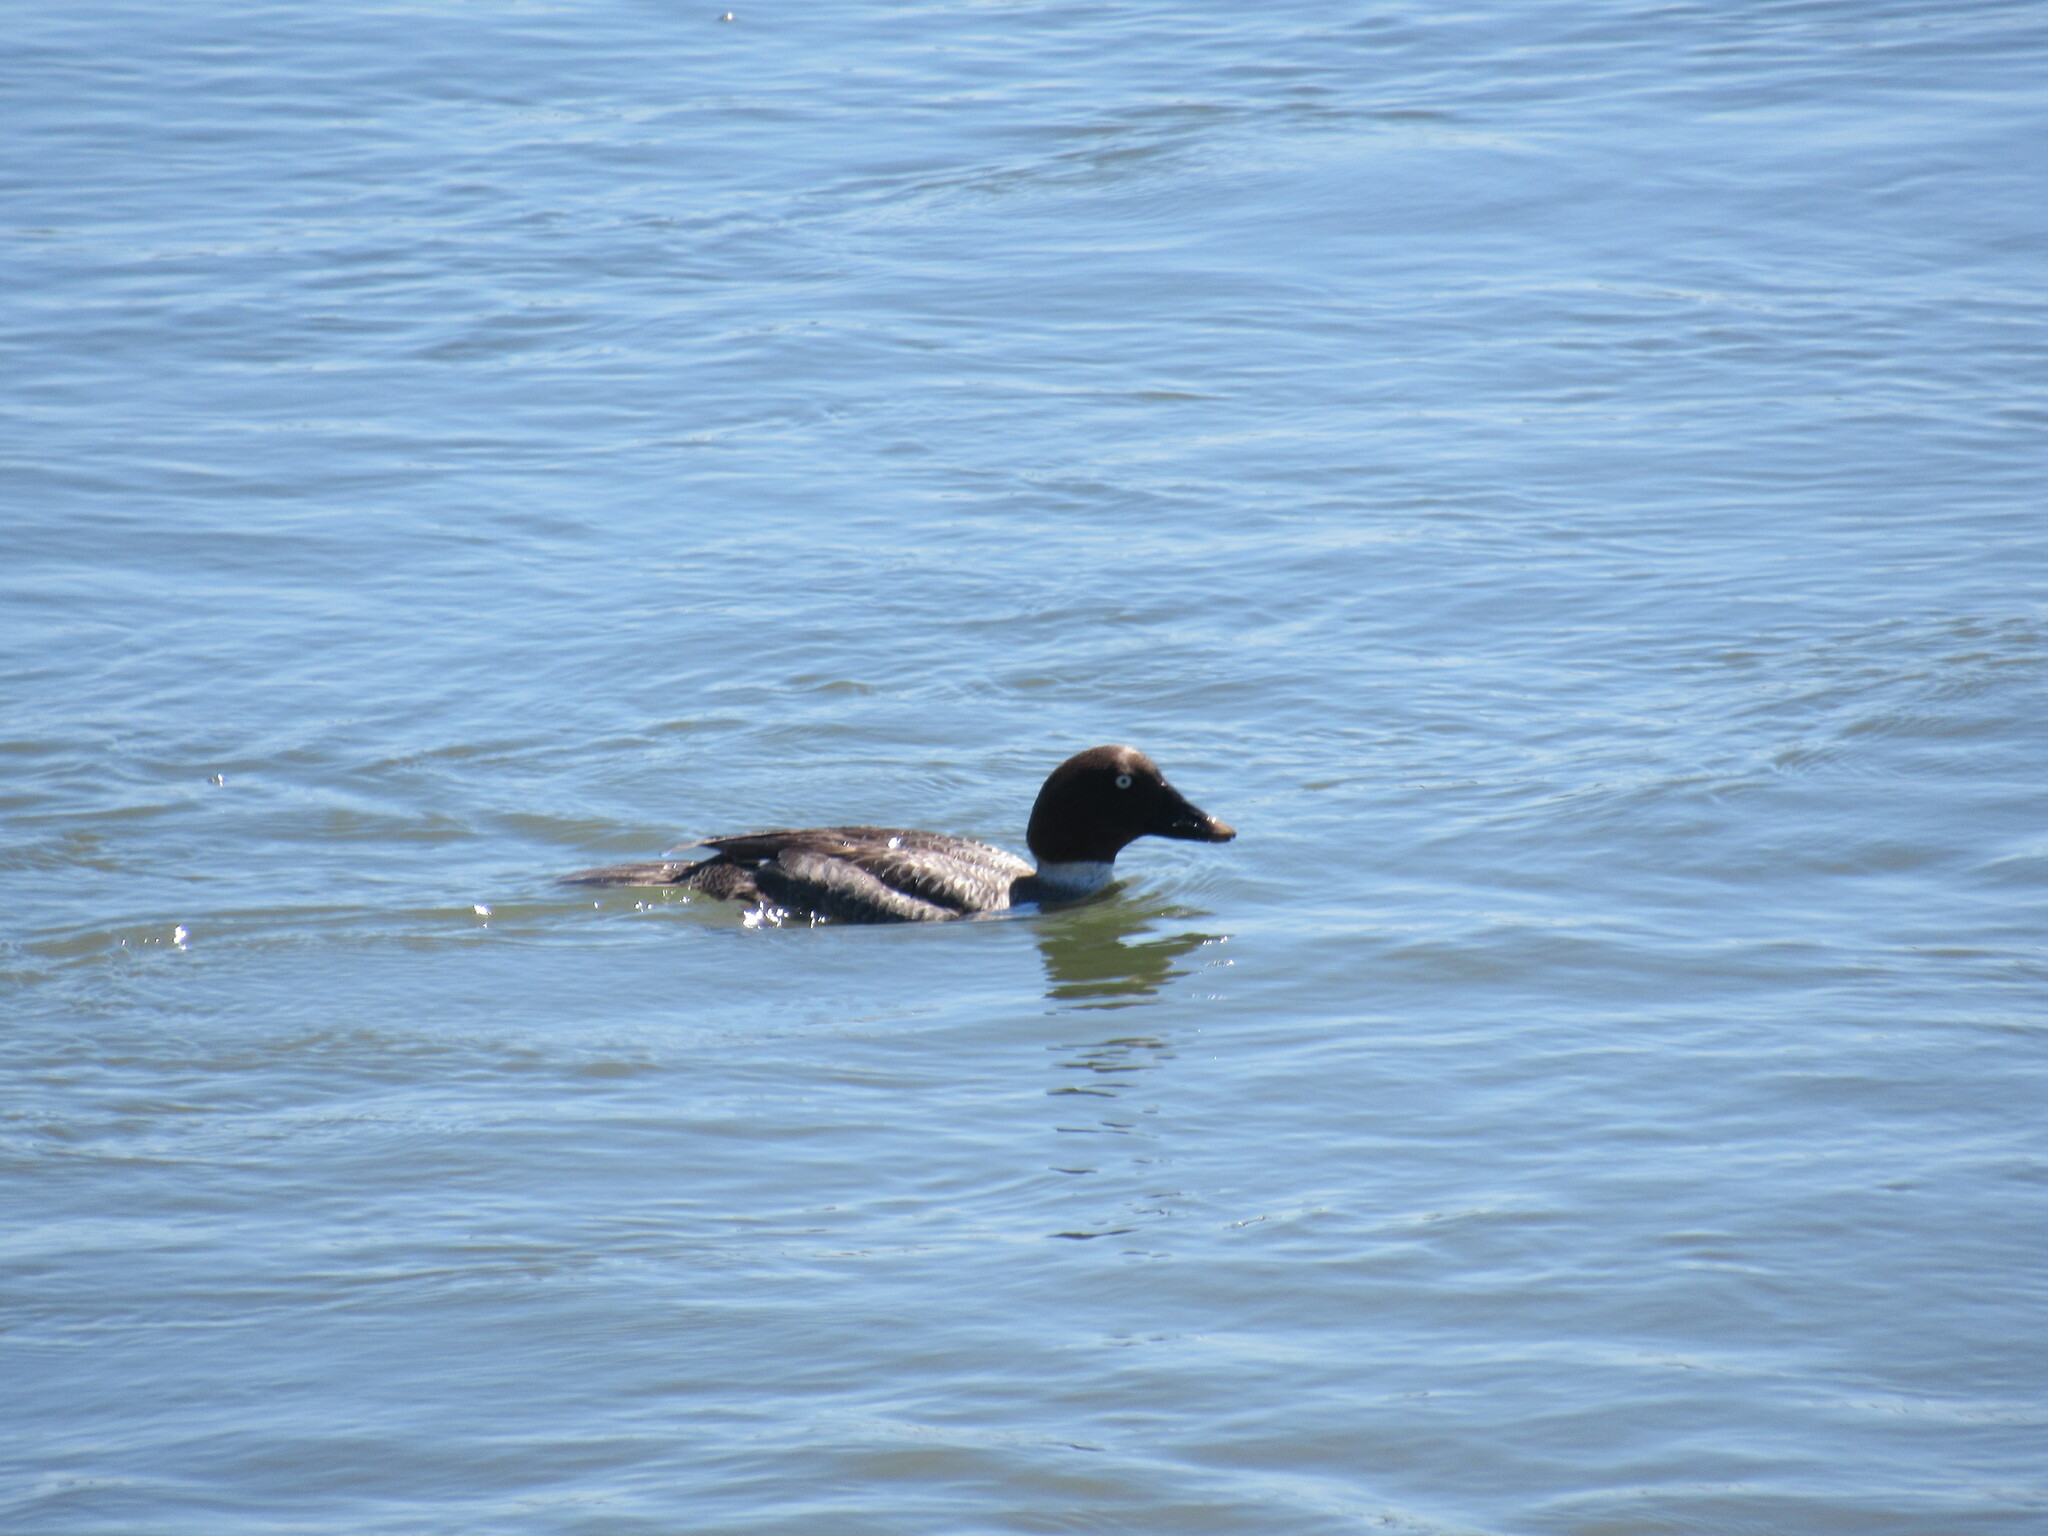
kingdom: Animalia
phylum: Chordata
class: Aves
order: Anseriformes
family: Anatidae
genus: Bucephala
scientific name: Bucephala clangula
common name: Common goldeneye
